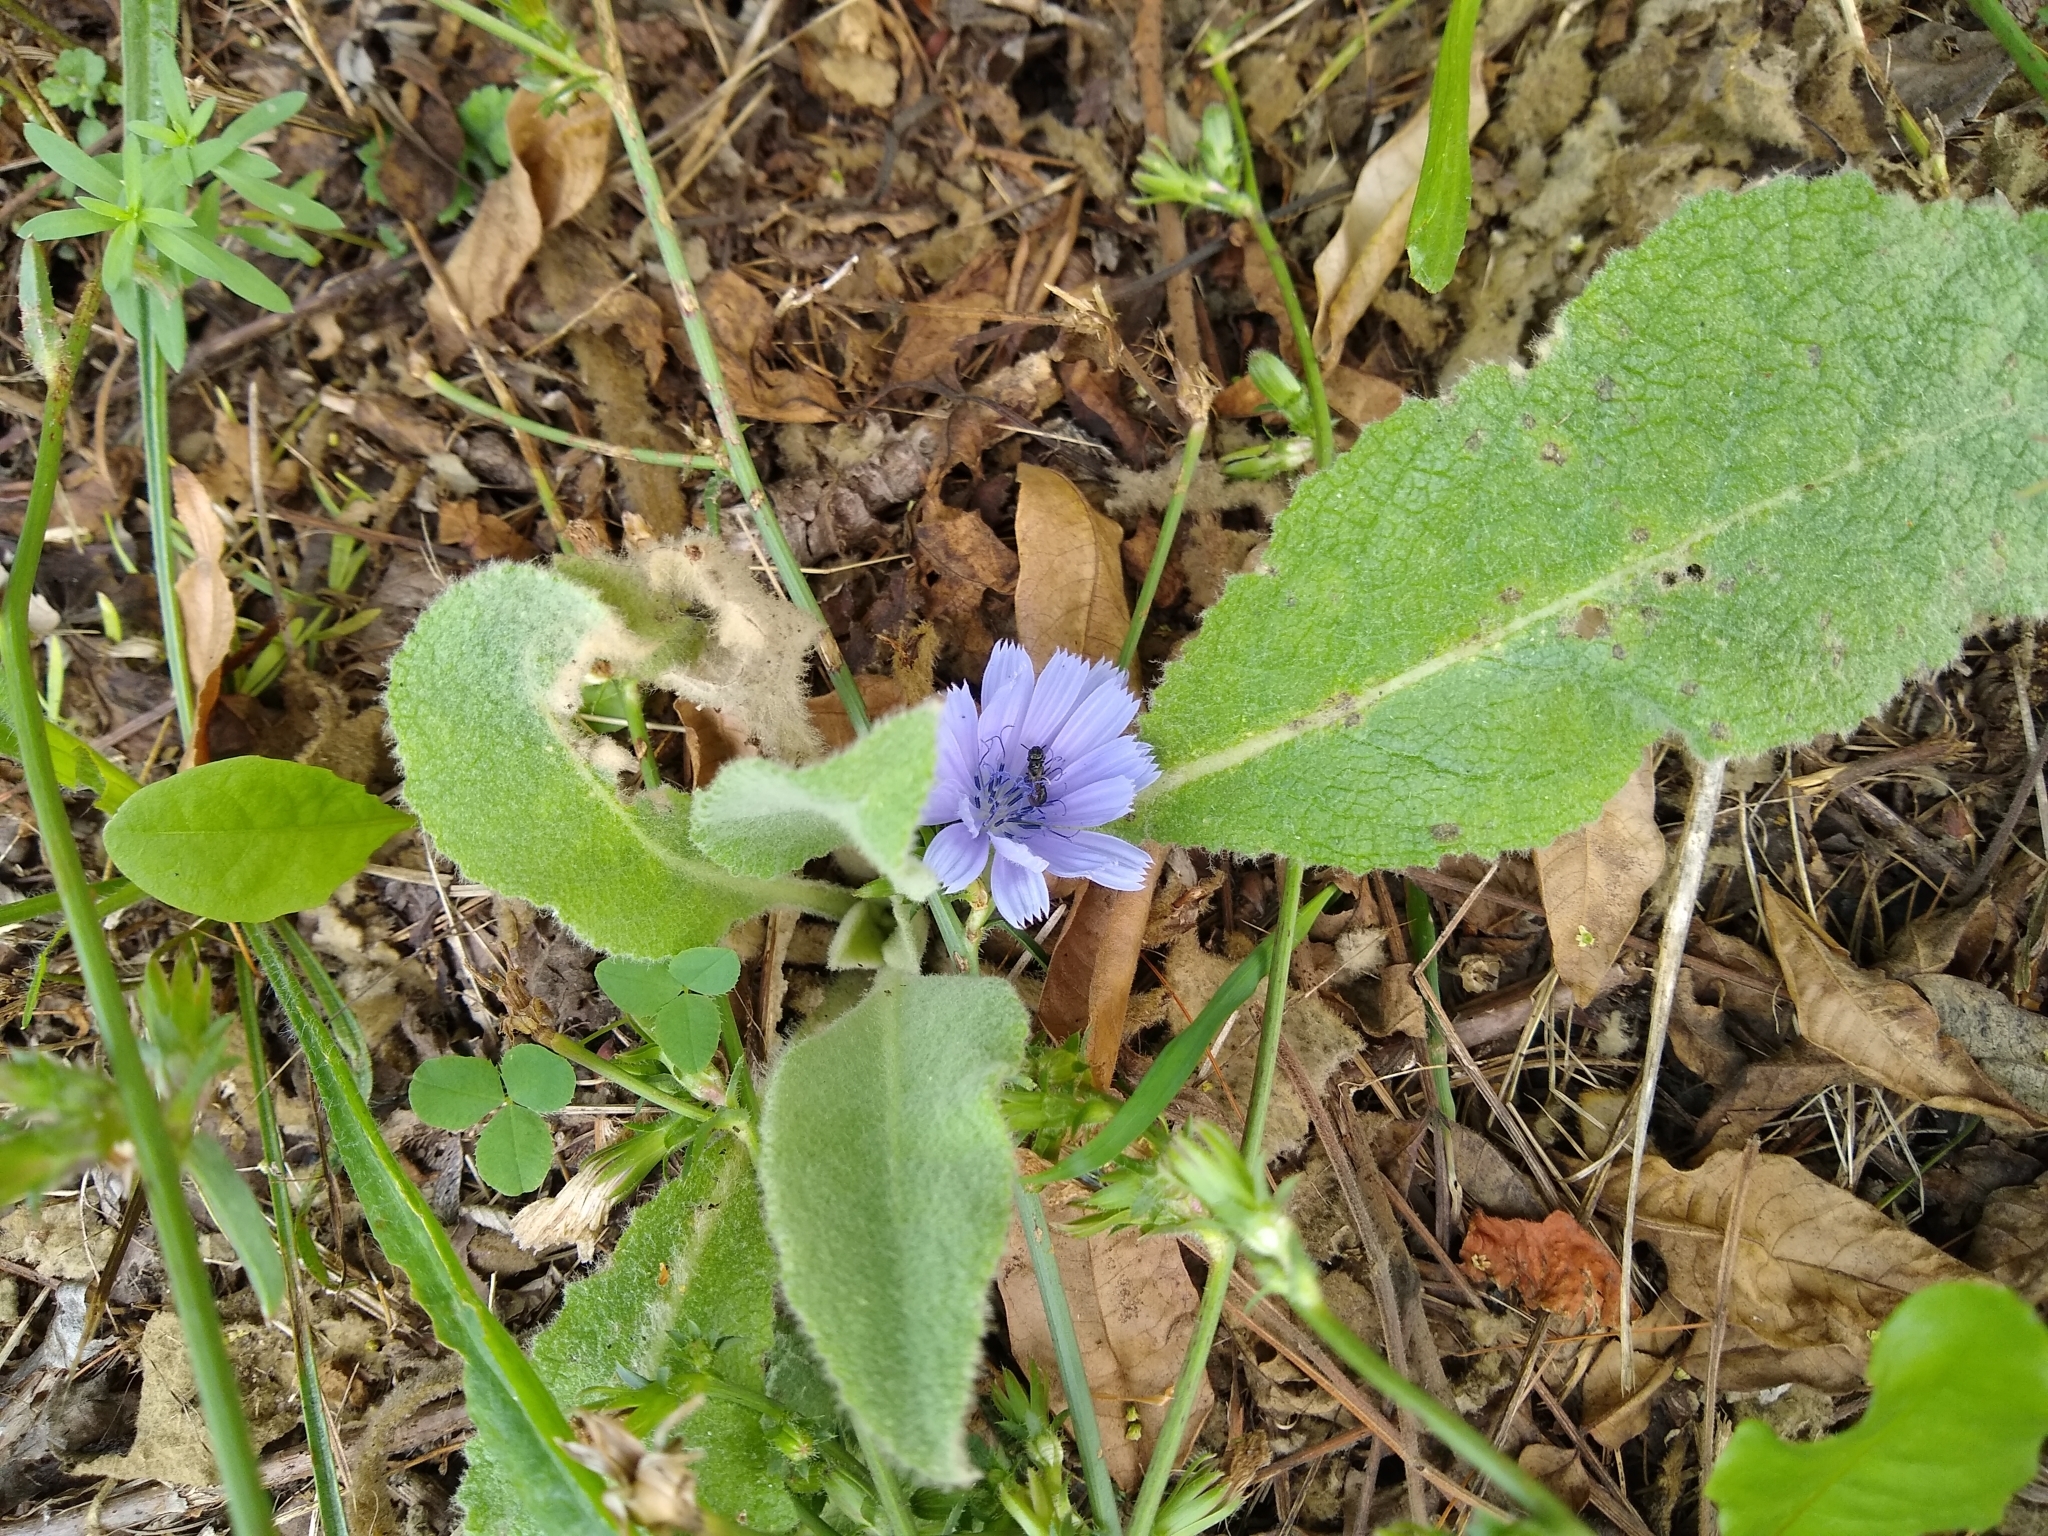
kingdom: Plantae
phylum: Tracheophyta
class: Magnoliopsida
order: Asterales
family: Asteraceae
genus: Cichorium
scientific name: Cichorium intybus
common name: Chicory
